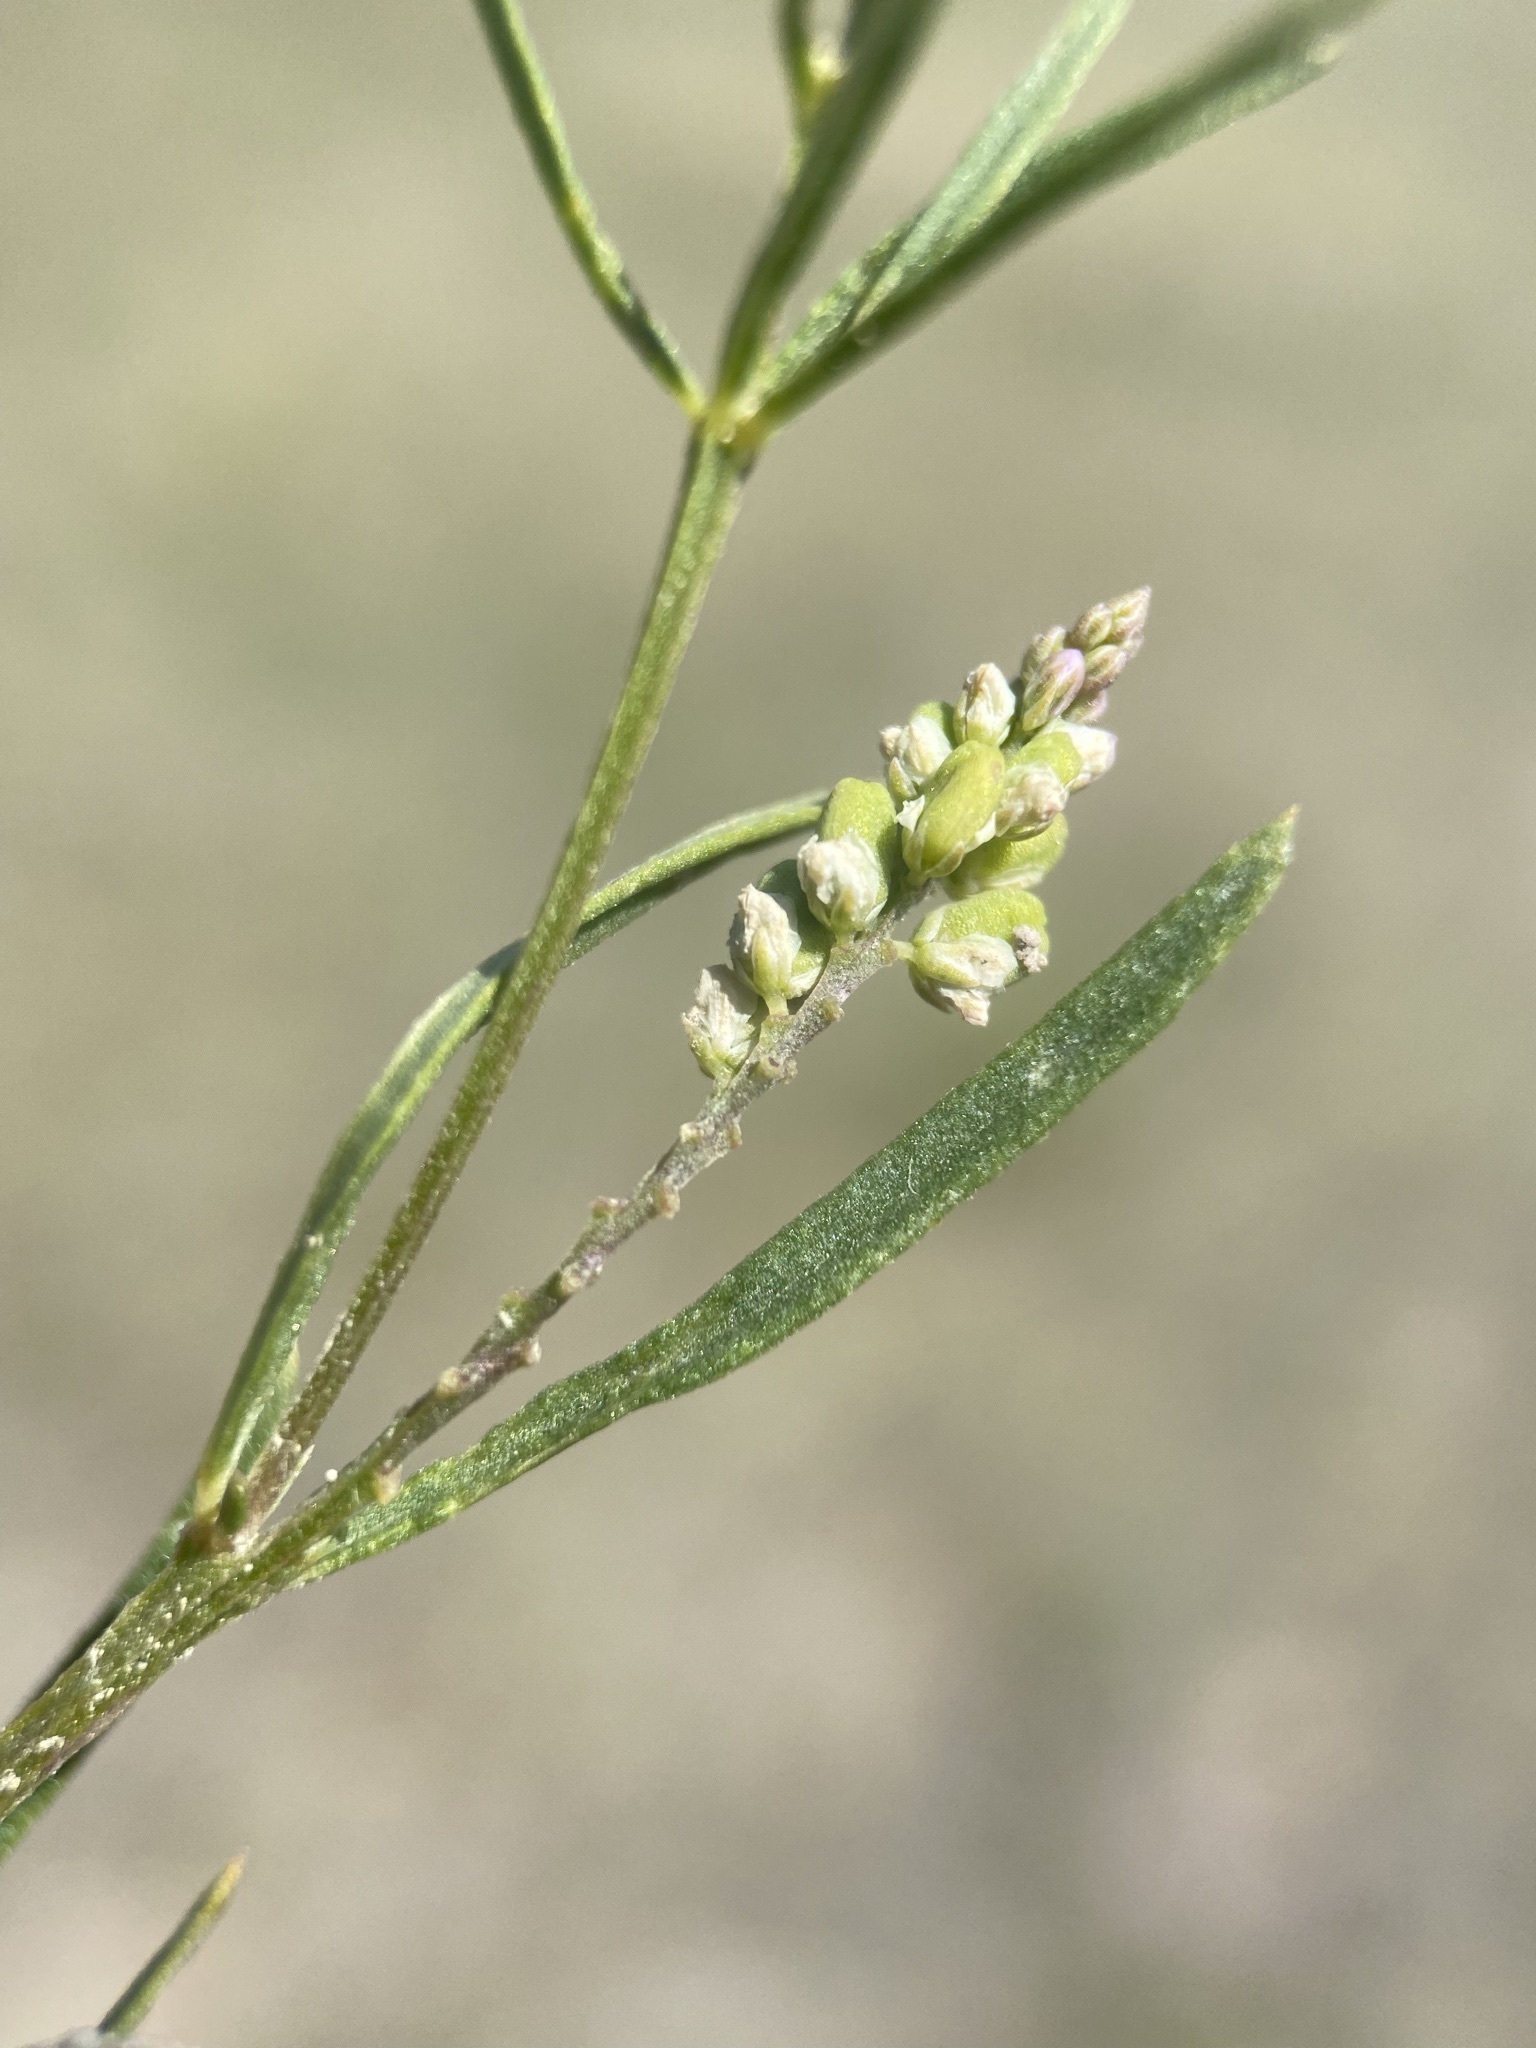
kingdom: Plantae
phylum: Tracheophyta
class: Magnoliopsida
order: Fabales
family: Polygalaceae
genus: Polygala
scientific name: Polygala alba
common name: White milkwort
